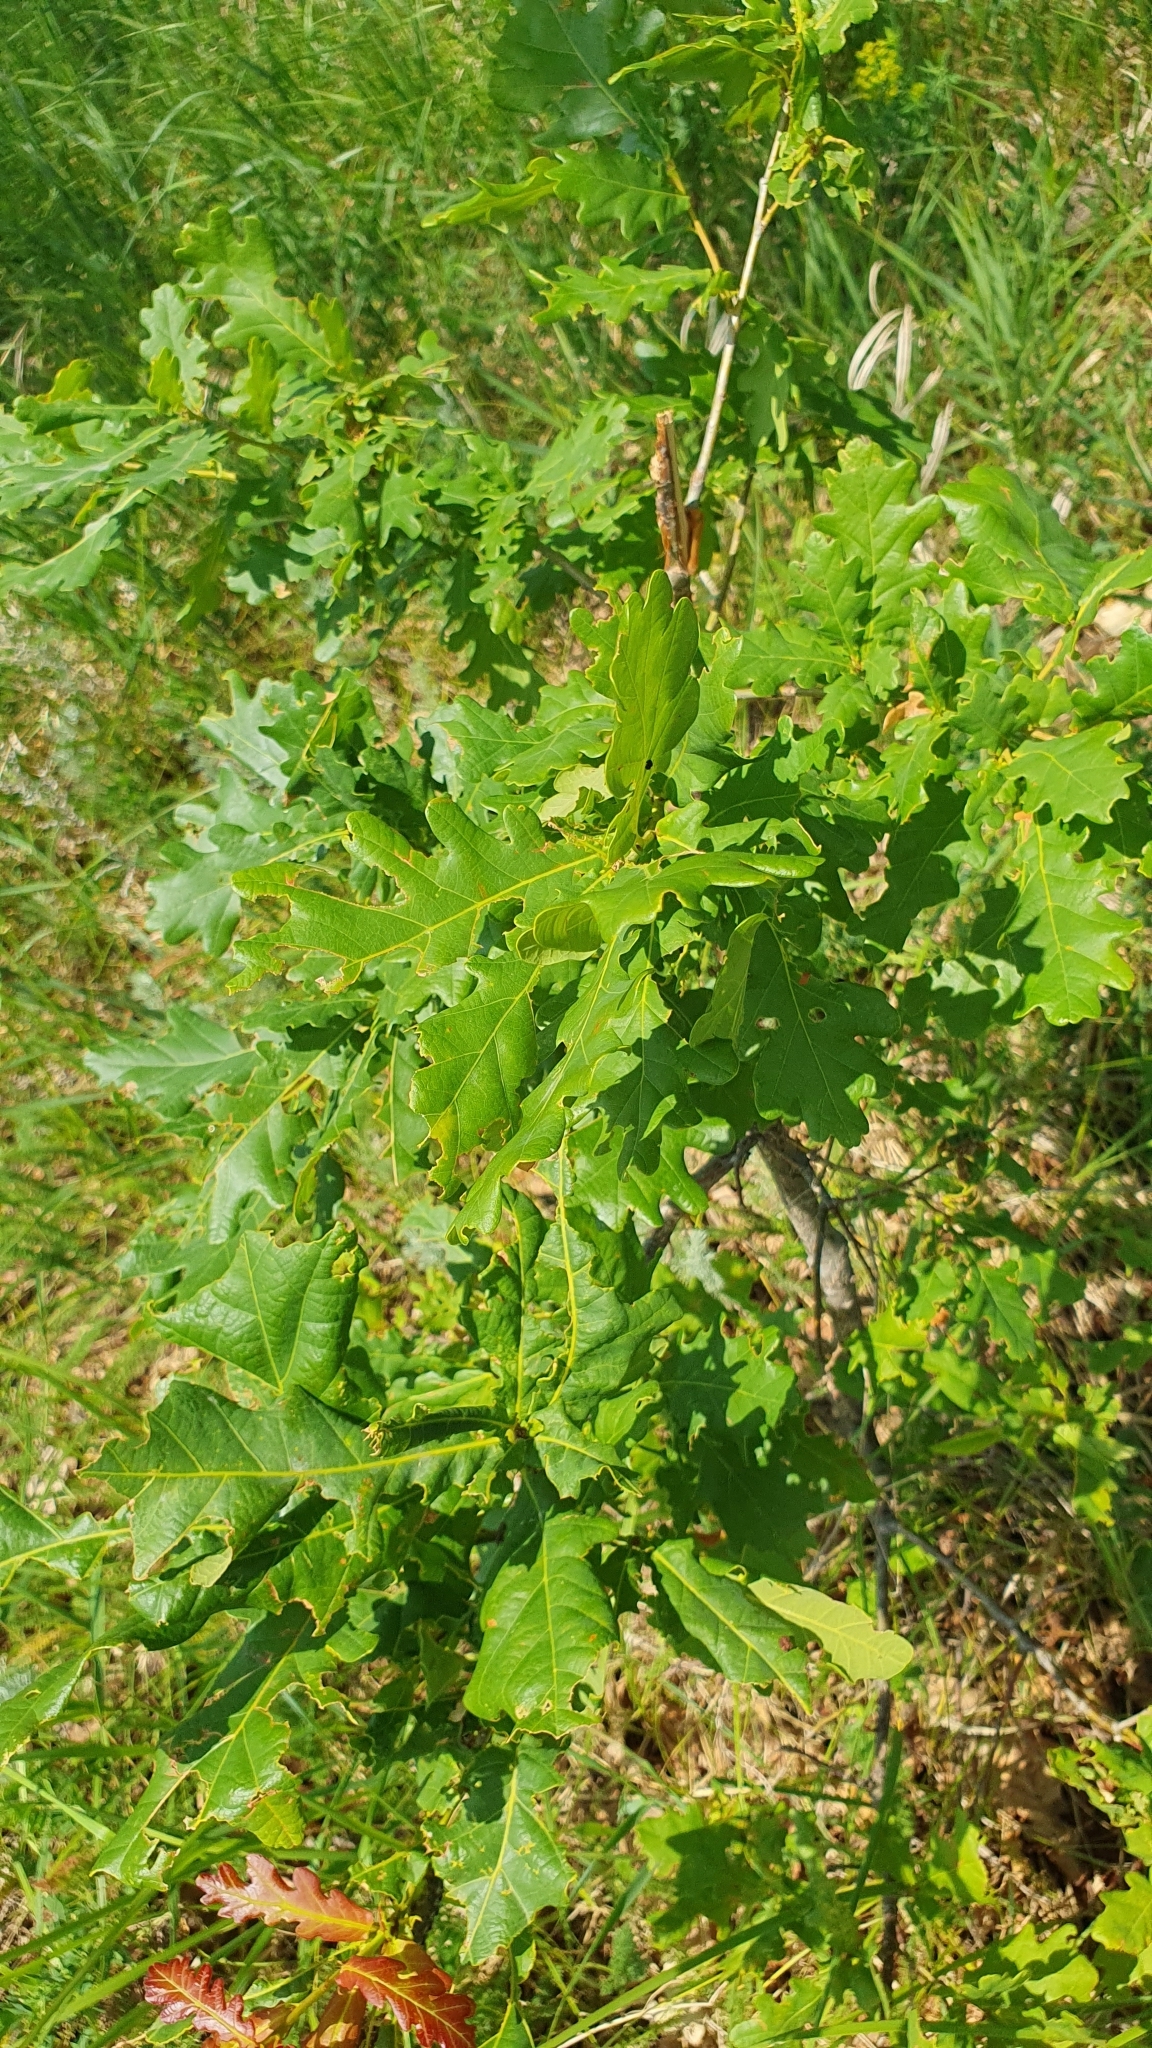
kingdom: Plantae
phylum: Tracheophyta
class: Magnoliopsida
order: Fagales
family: Fagaceae
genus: Quercus
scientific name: Quercus robur
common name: Pedunculate oak
